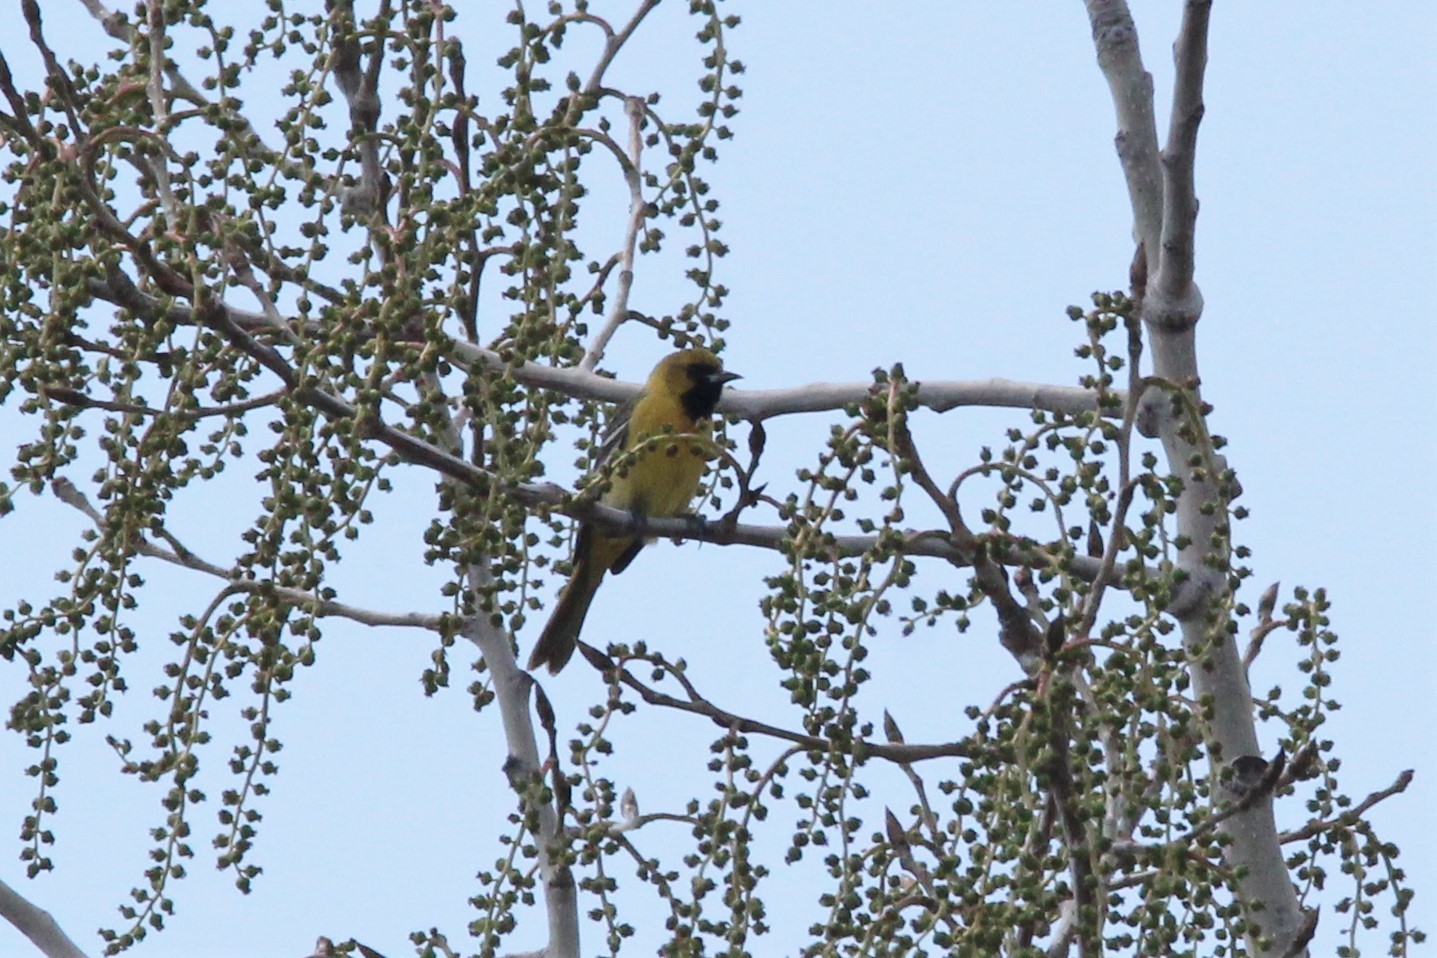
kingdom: Animalia
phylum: Chordata
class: Aves
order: Passeriformes
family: Icteridae
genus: Icterus
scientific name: Icterus spurius
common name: Orchard oriole
